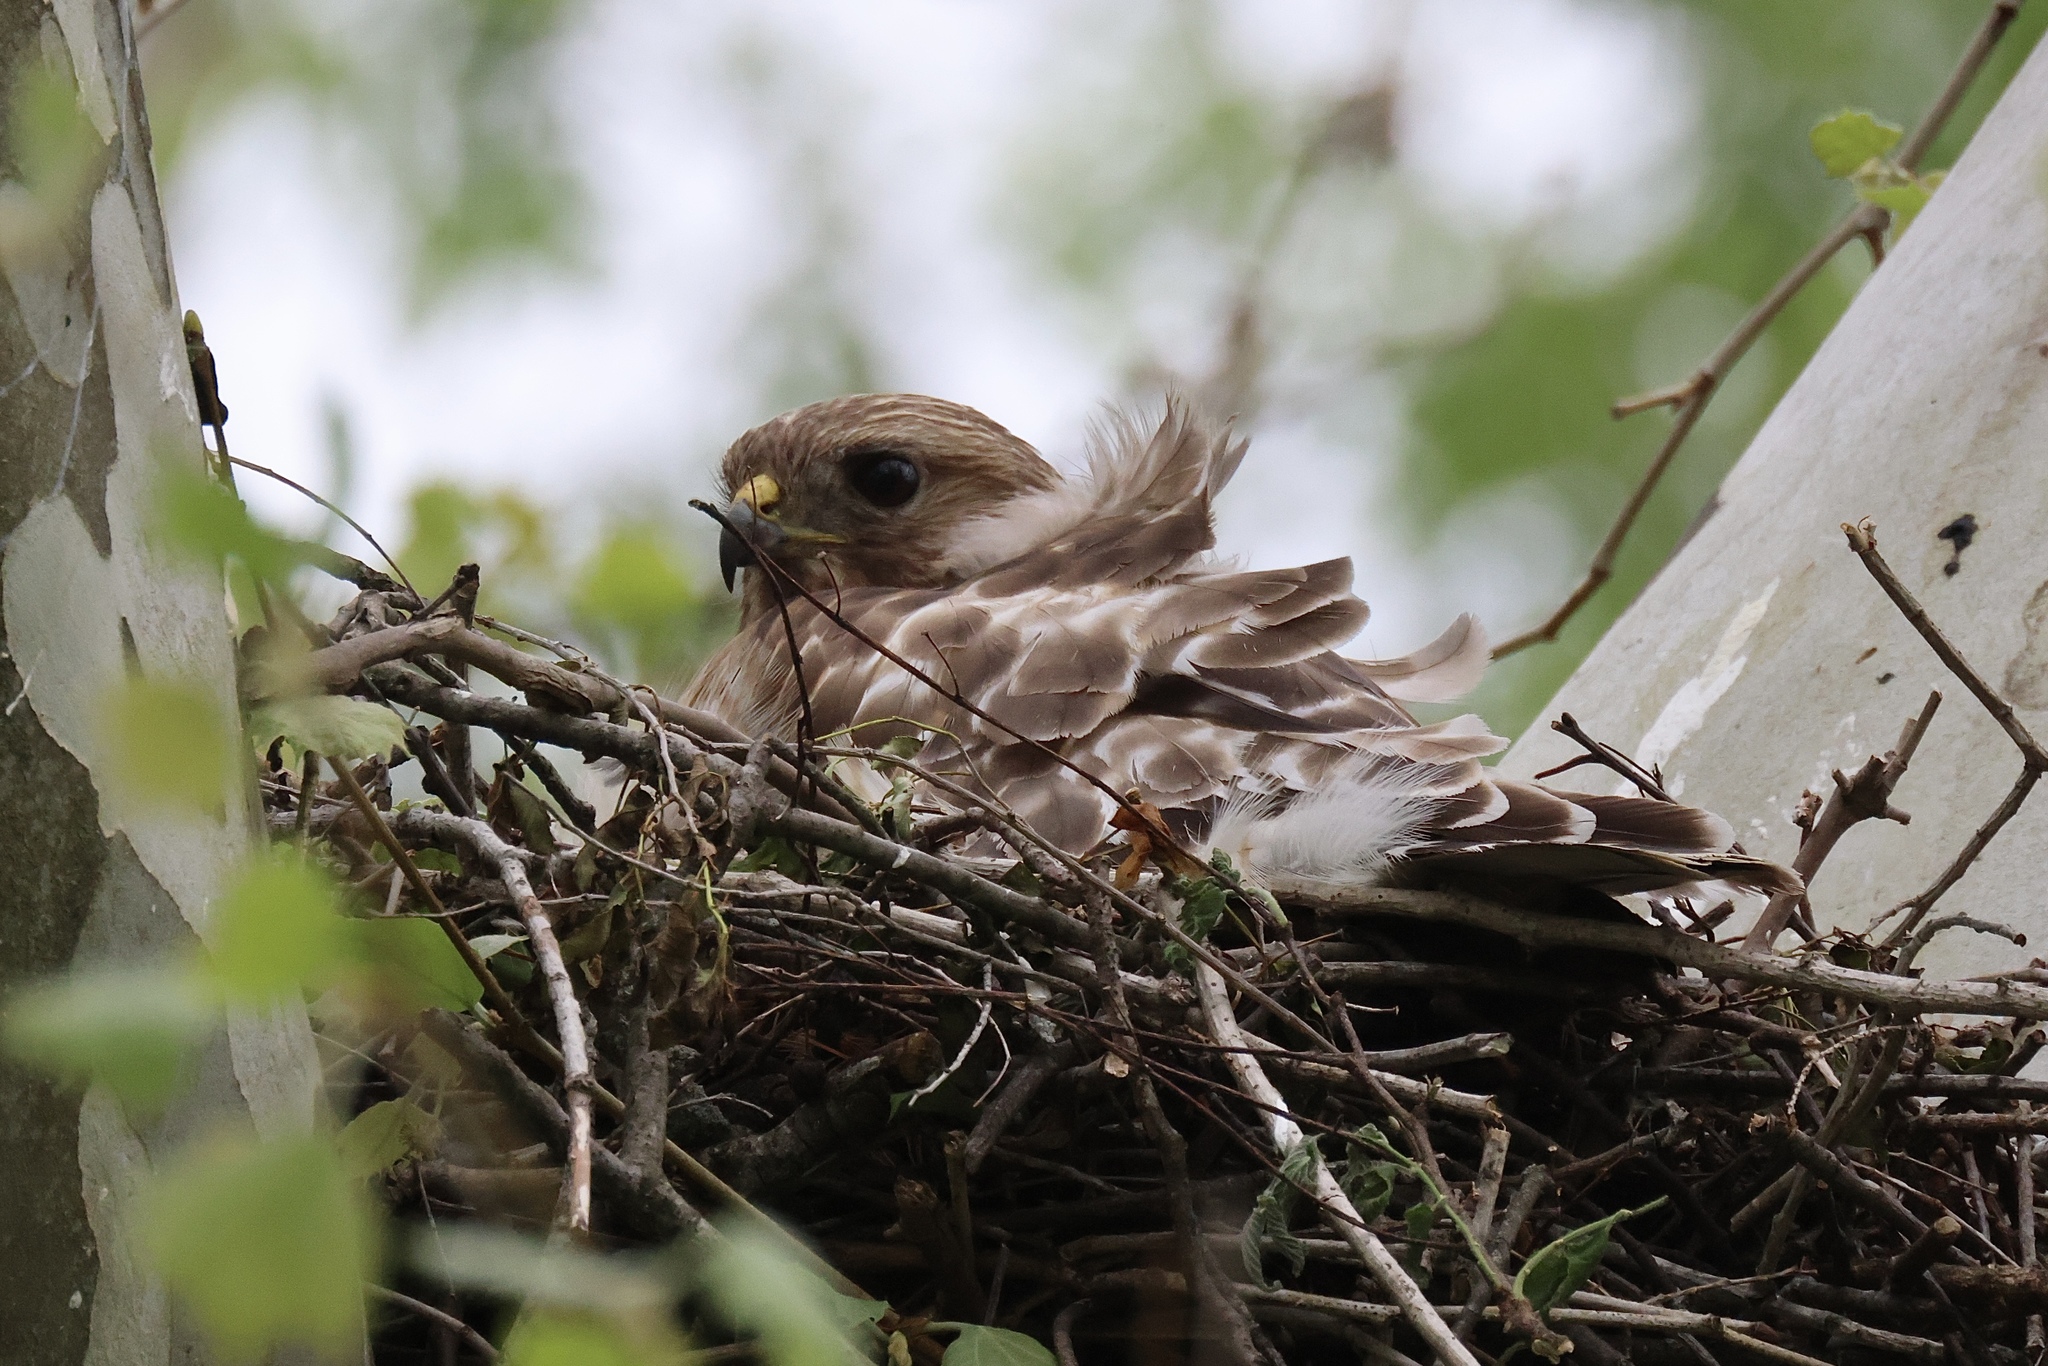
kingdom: Animalia
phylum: Chordata
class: Aves
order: Accipitriformes
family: Accipitridae
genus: Buteo
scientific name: Buteo lineatus
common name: Red-shouldered hawk
